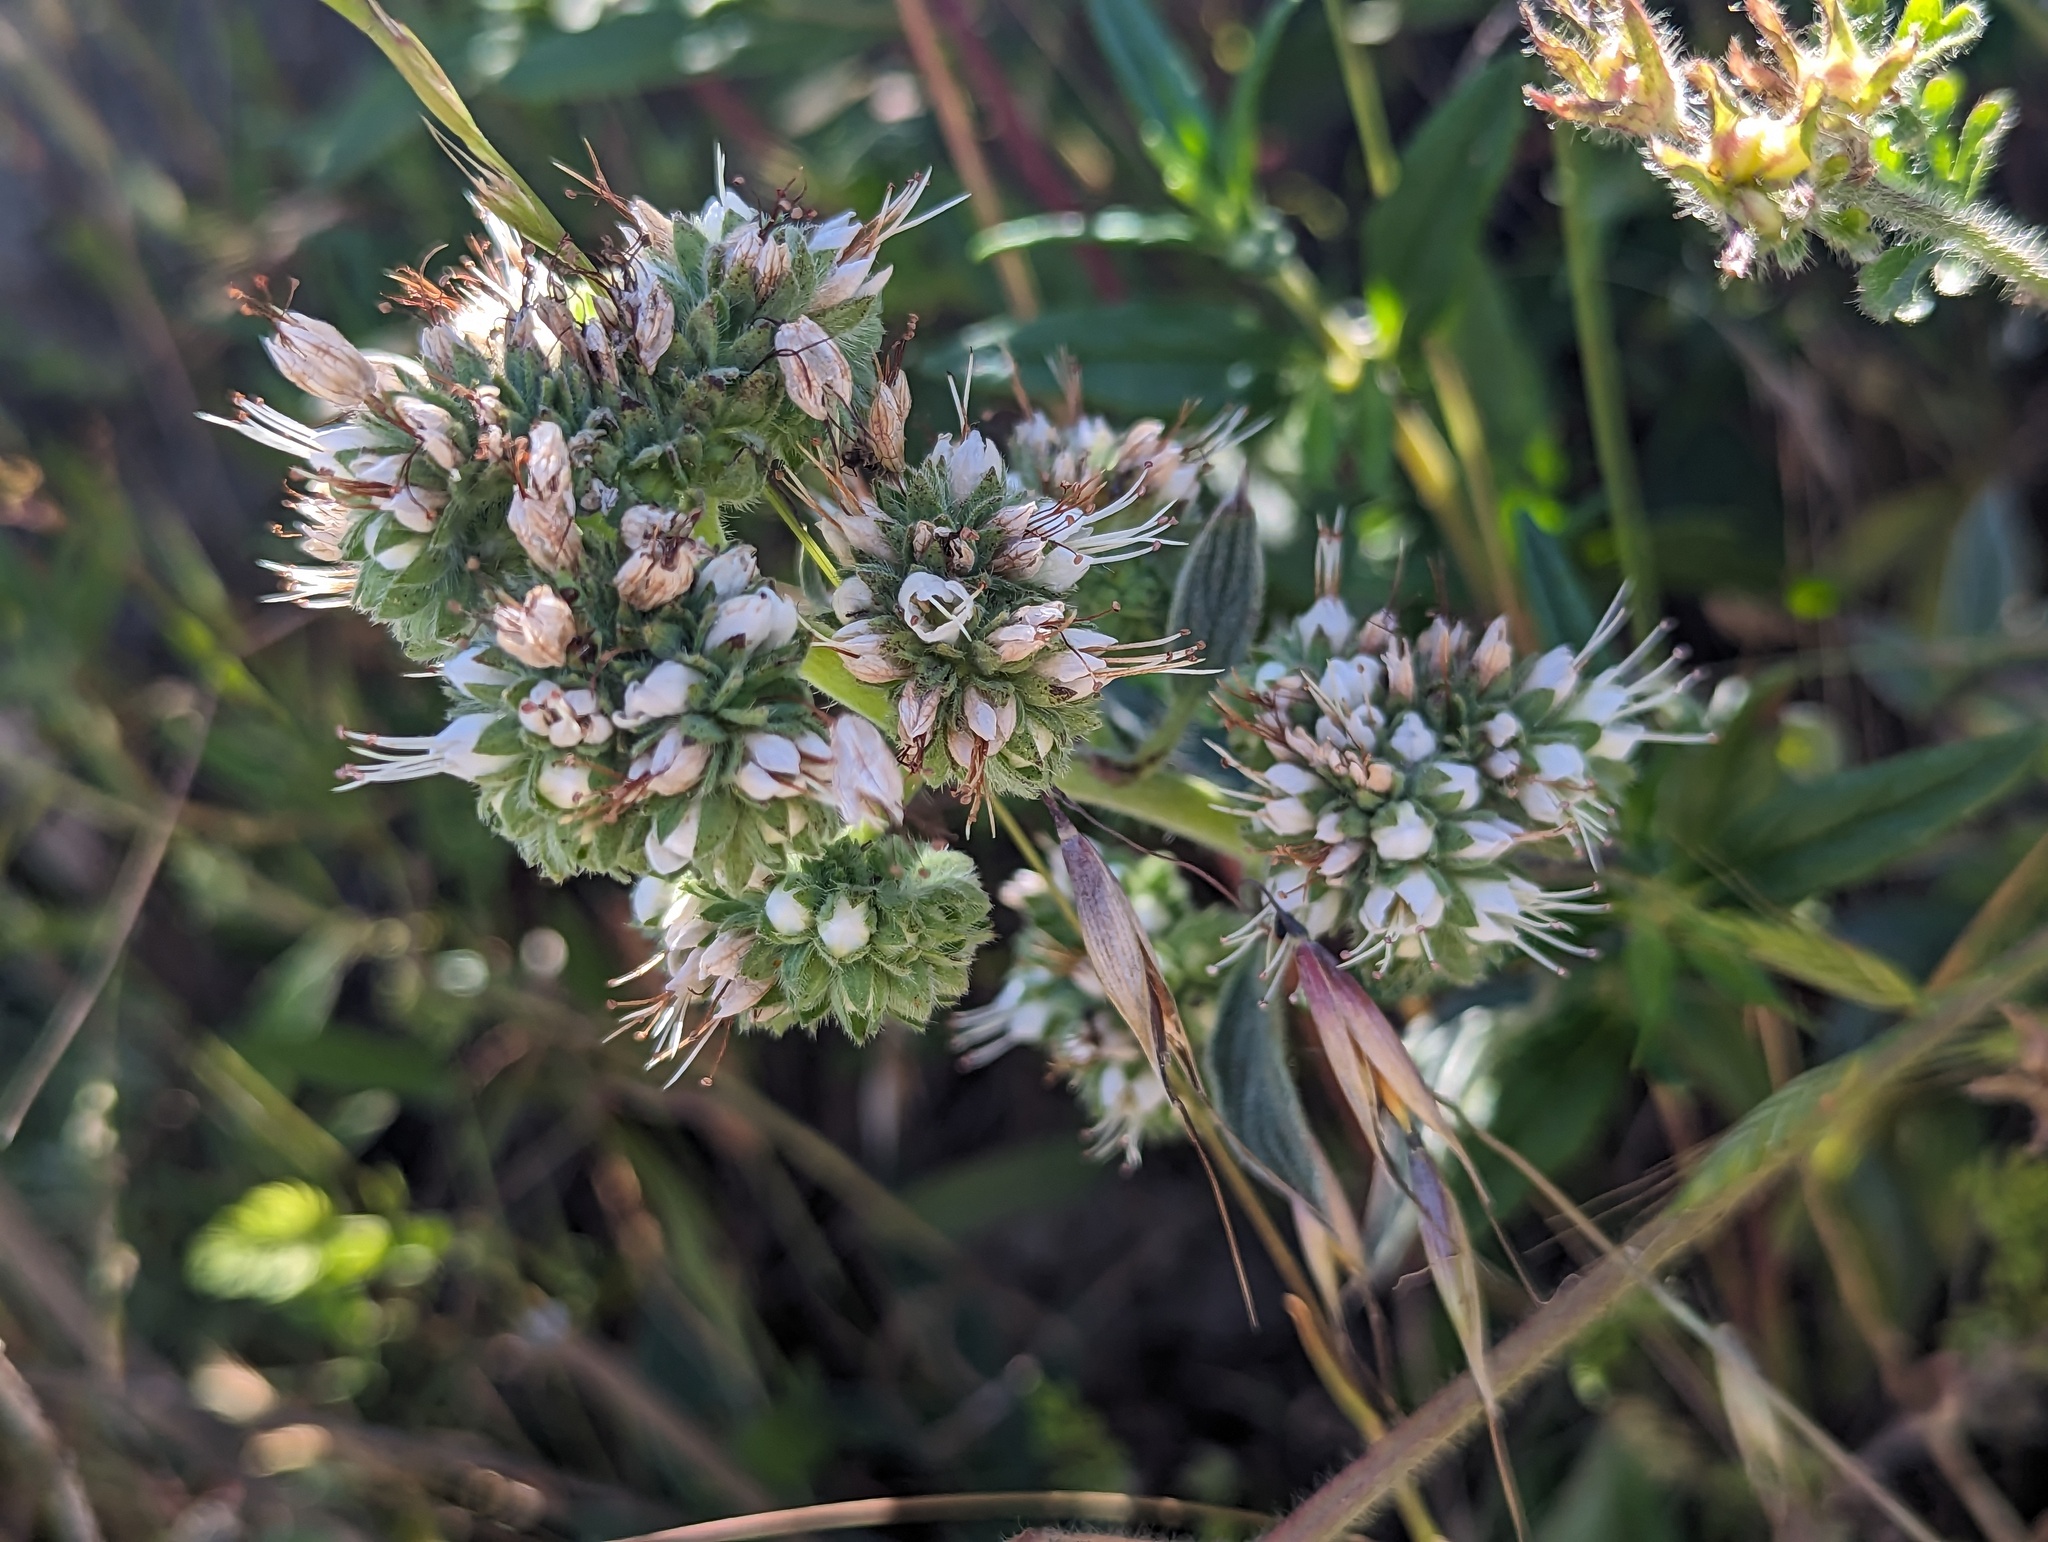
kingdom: Plantae
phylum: Tracheophyta
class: Magnoliopsida
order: Boraginales
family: Hydrophyllaceae
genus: Phacelia
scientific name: Phacelia imbricata
